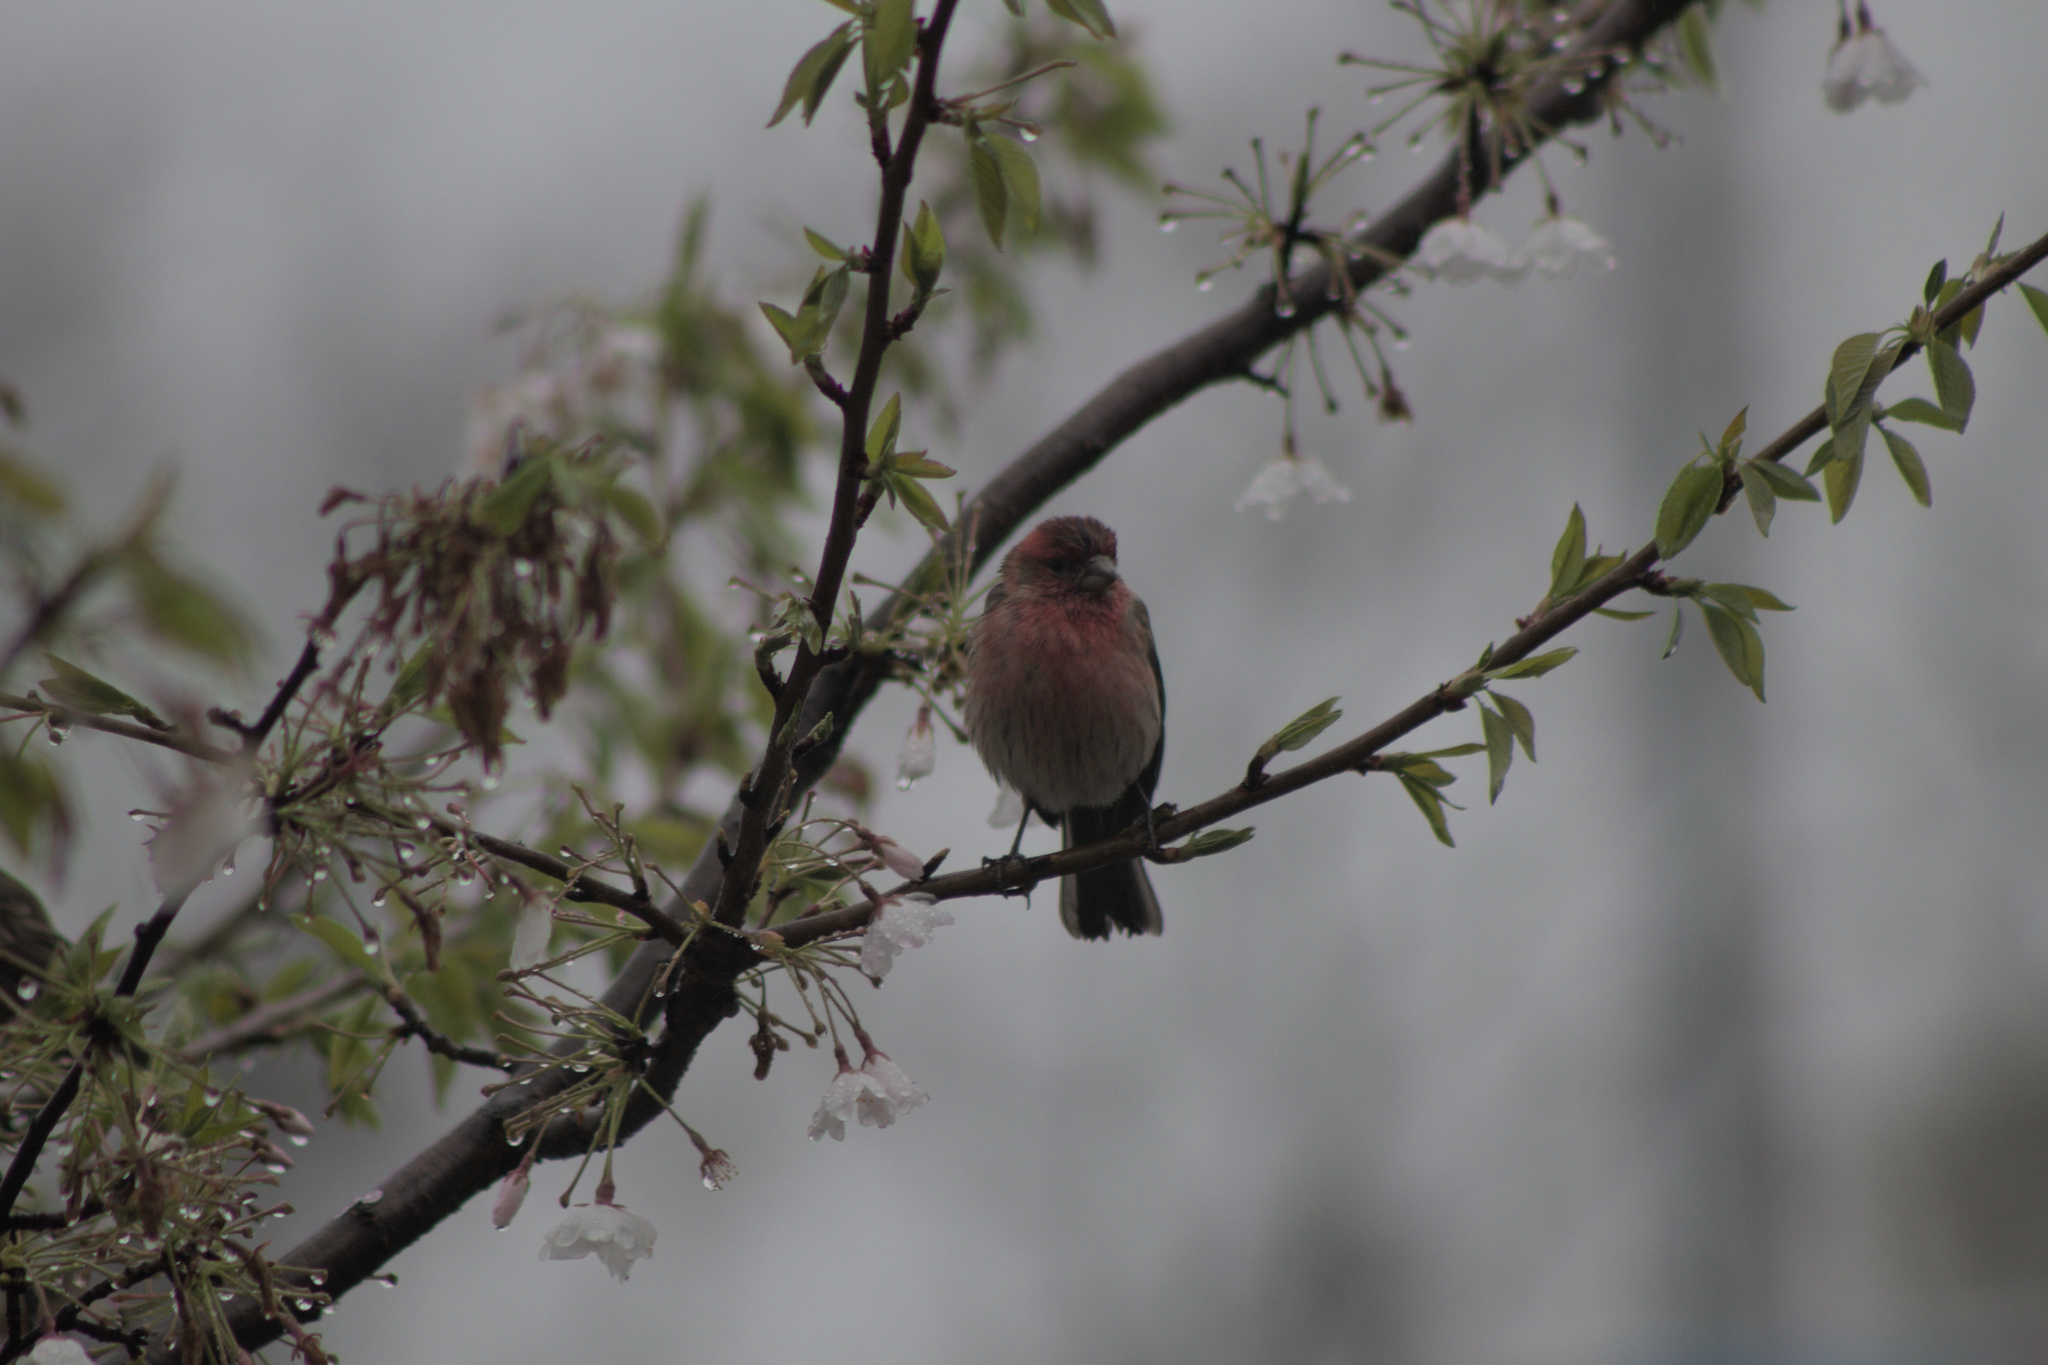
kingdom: Animalia
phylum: Chordata
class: Aves
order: Passeriformes
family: Fringillidae
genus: Haemorhous
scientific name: Haemorhous mexicanus
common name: House finch
